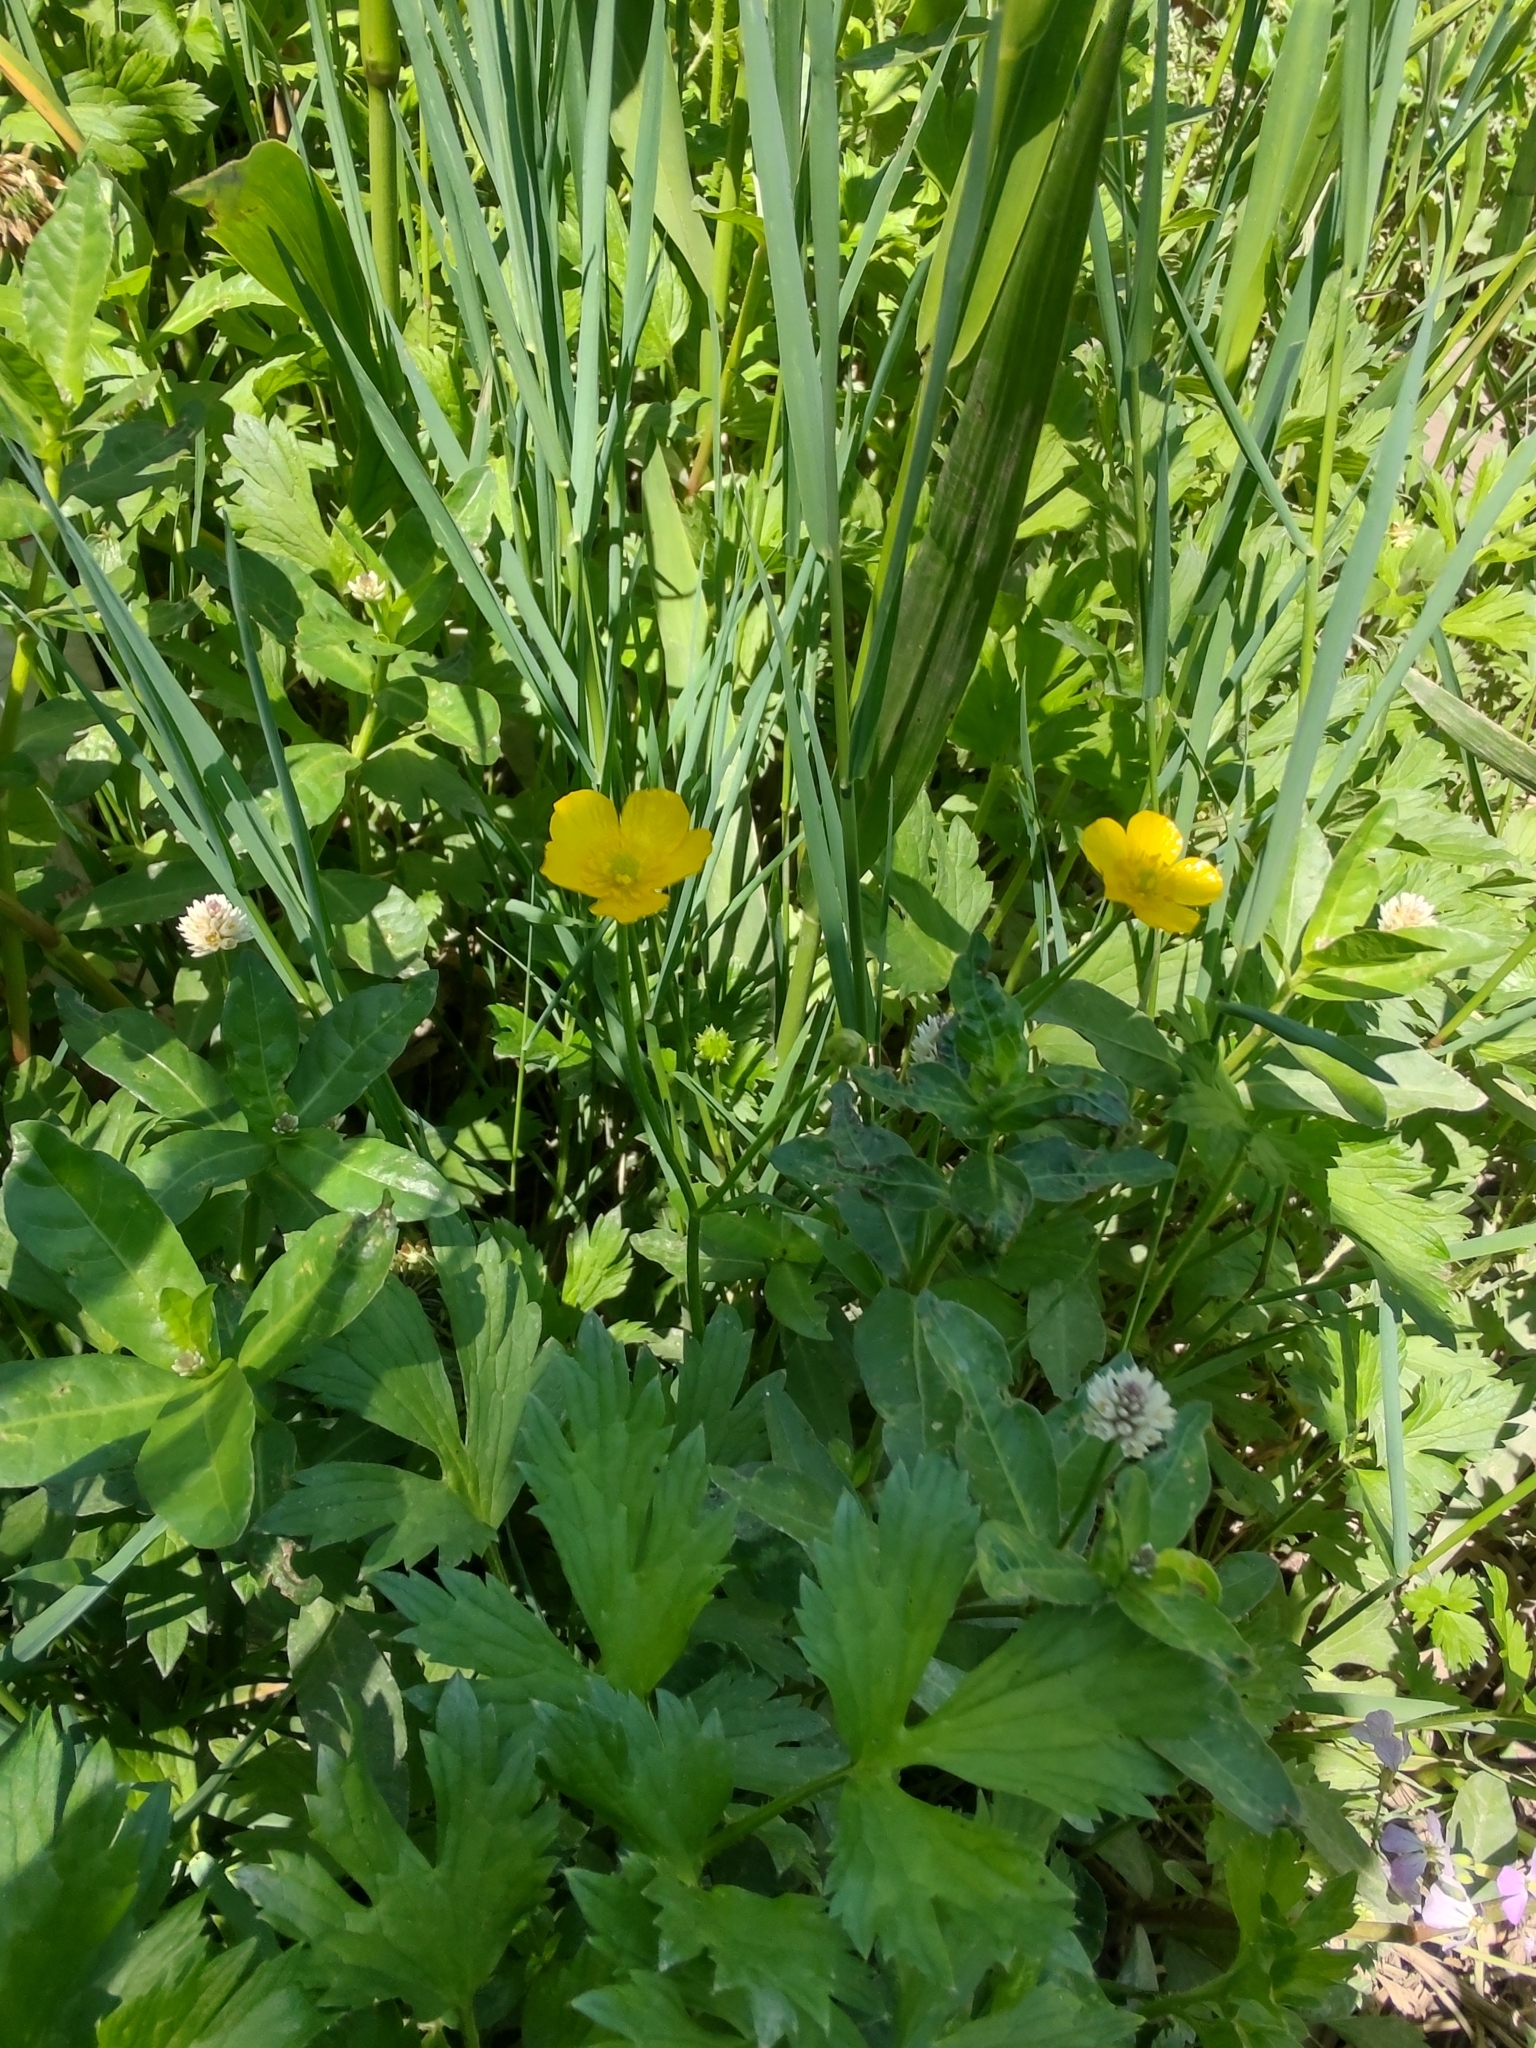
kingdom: Plantae
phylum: Tracheophyta
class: Magnoliopsida
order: Ranunculales
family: Ranunculaceae
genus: Ranunculus
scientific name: Ranunculus repens
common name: Creeping buttercup
